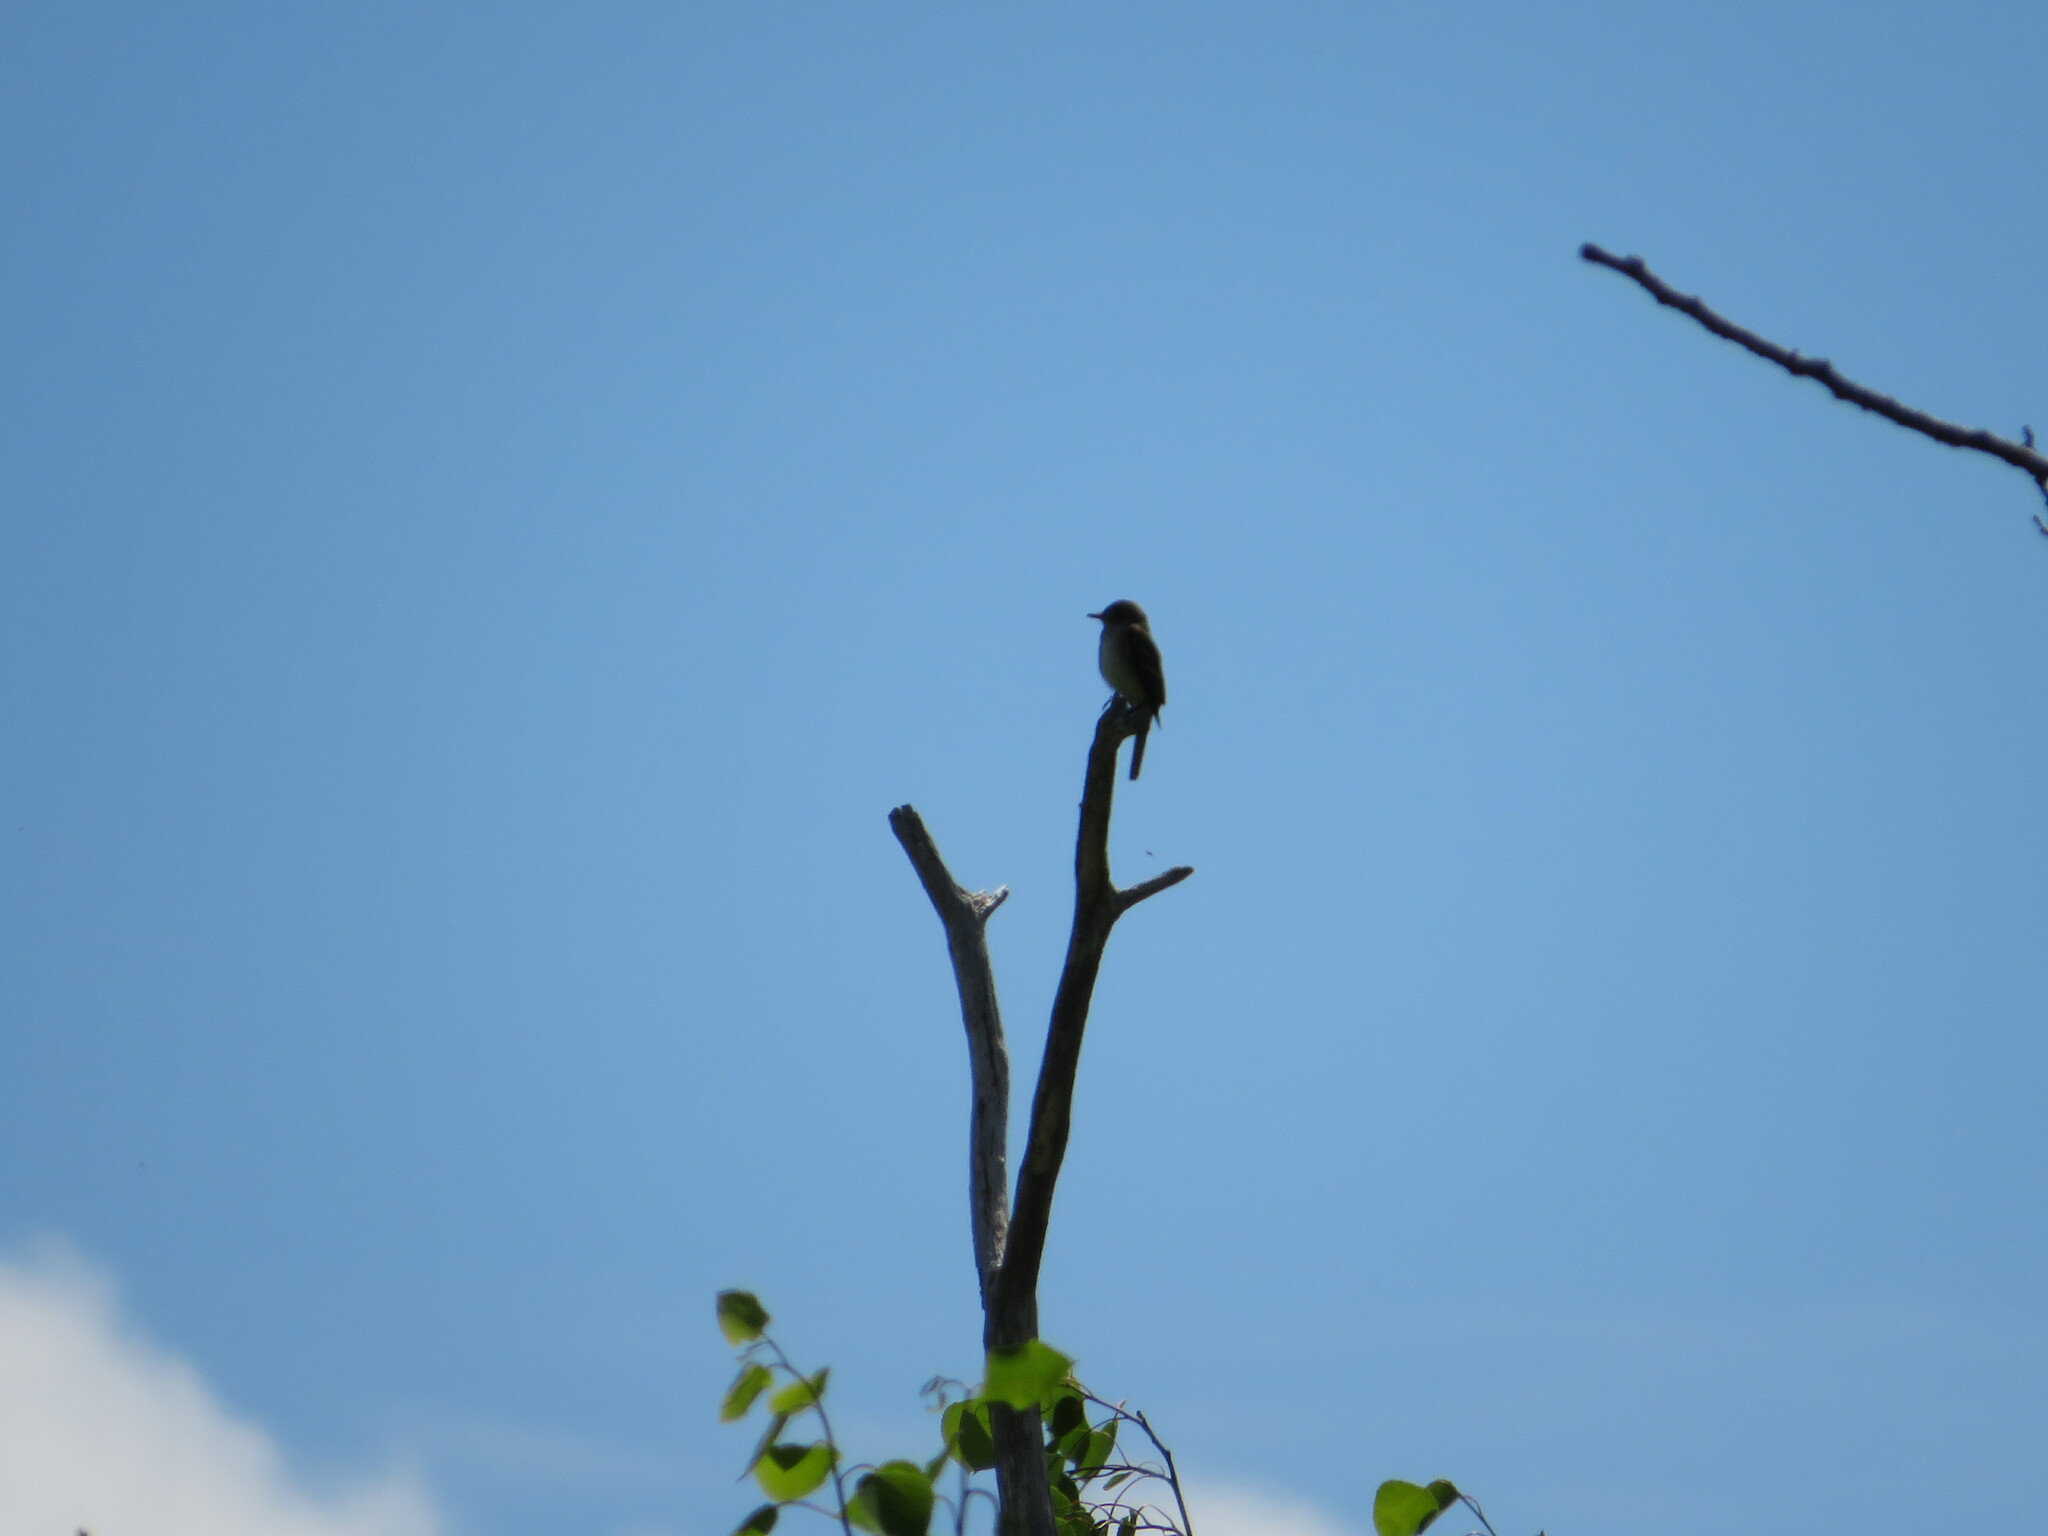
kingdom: Animalia
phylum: Chordata
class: Aves
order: Passeriformes
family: Tyrannidae
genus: Empidonax
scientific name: Empidonax alnorum
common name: Alder flycatcher
